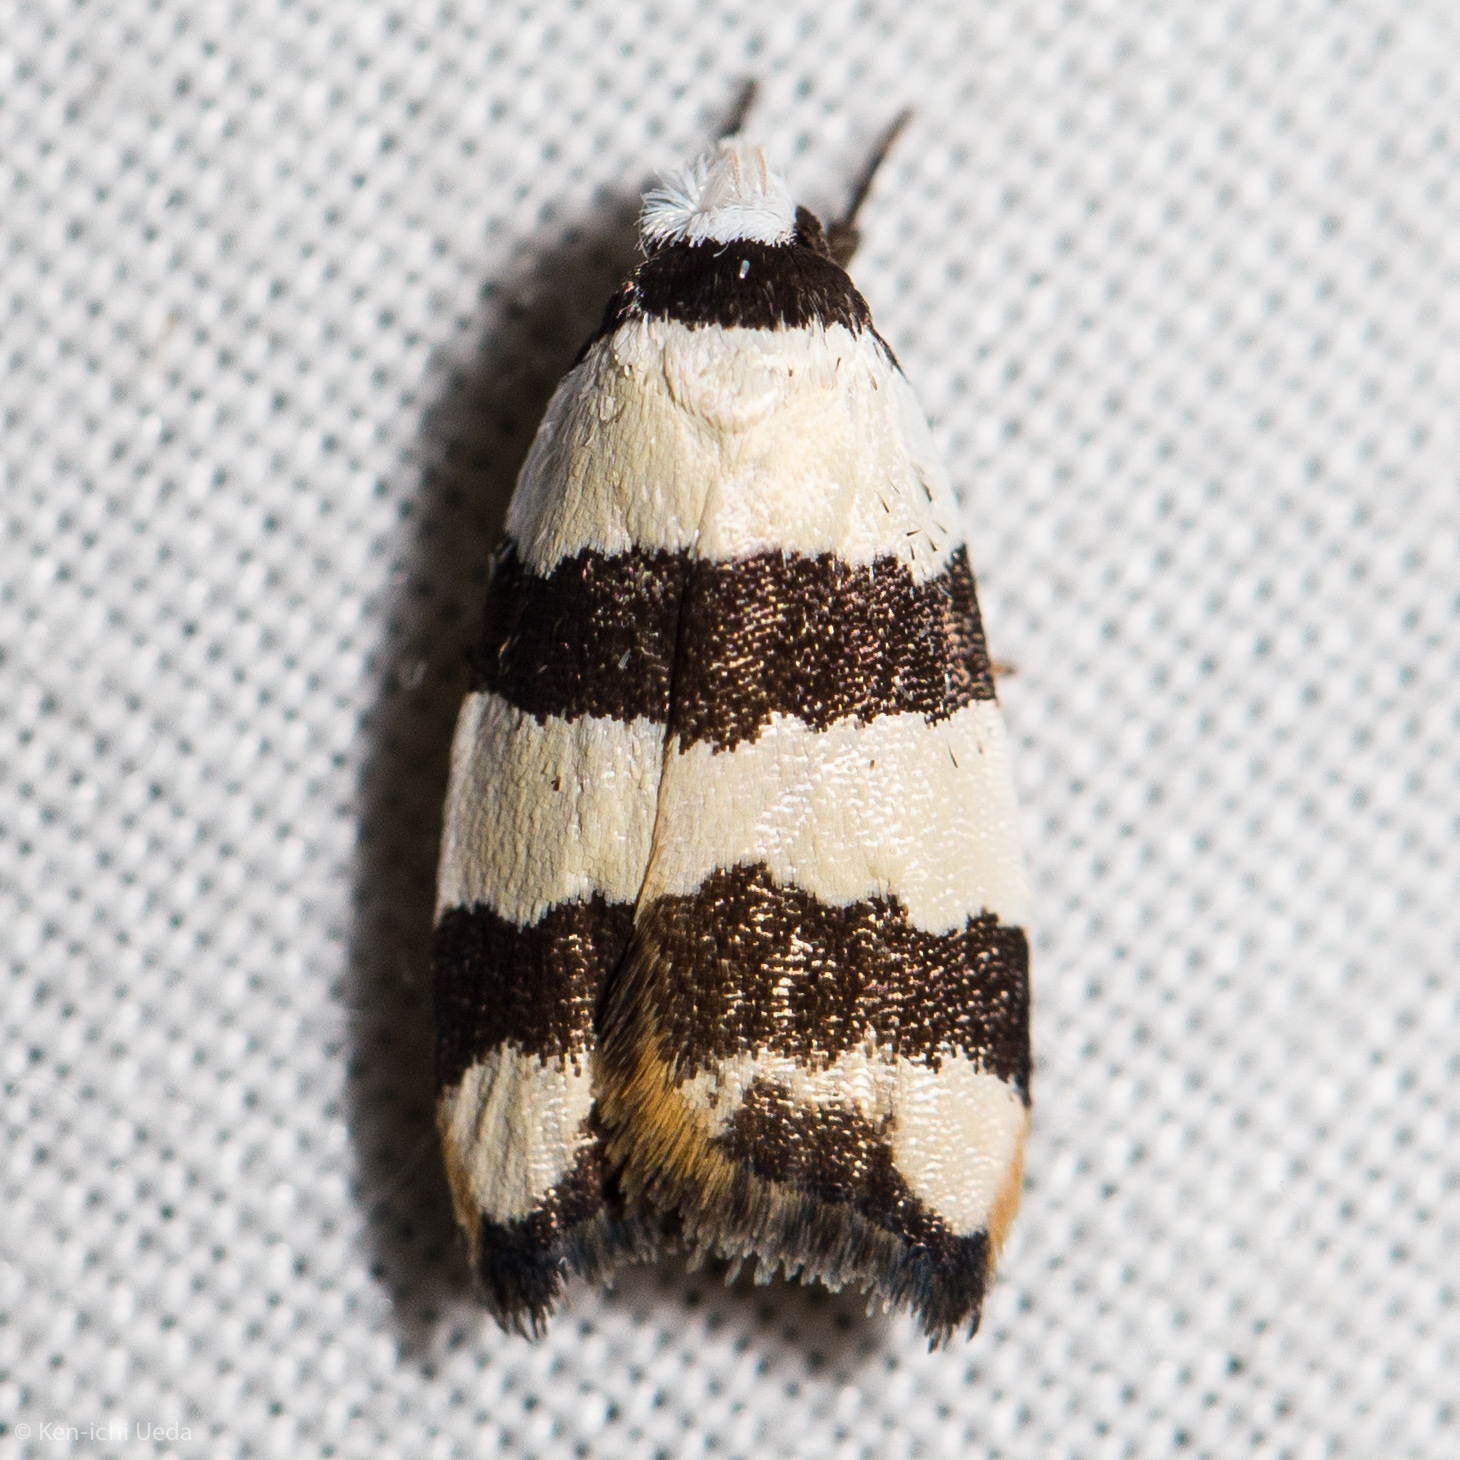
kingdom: Animalia
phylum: Arthropoda
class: Insecta
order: Lepidoptera
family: Oecophoridae
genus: Zonopetala
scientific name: Zonopetala clerota
